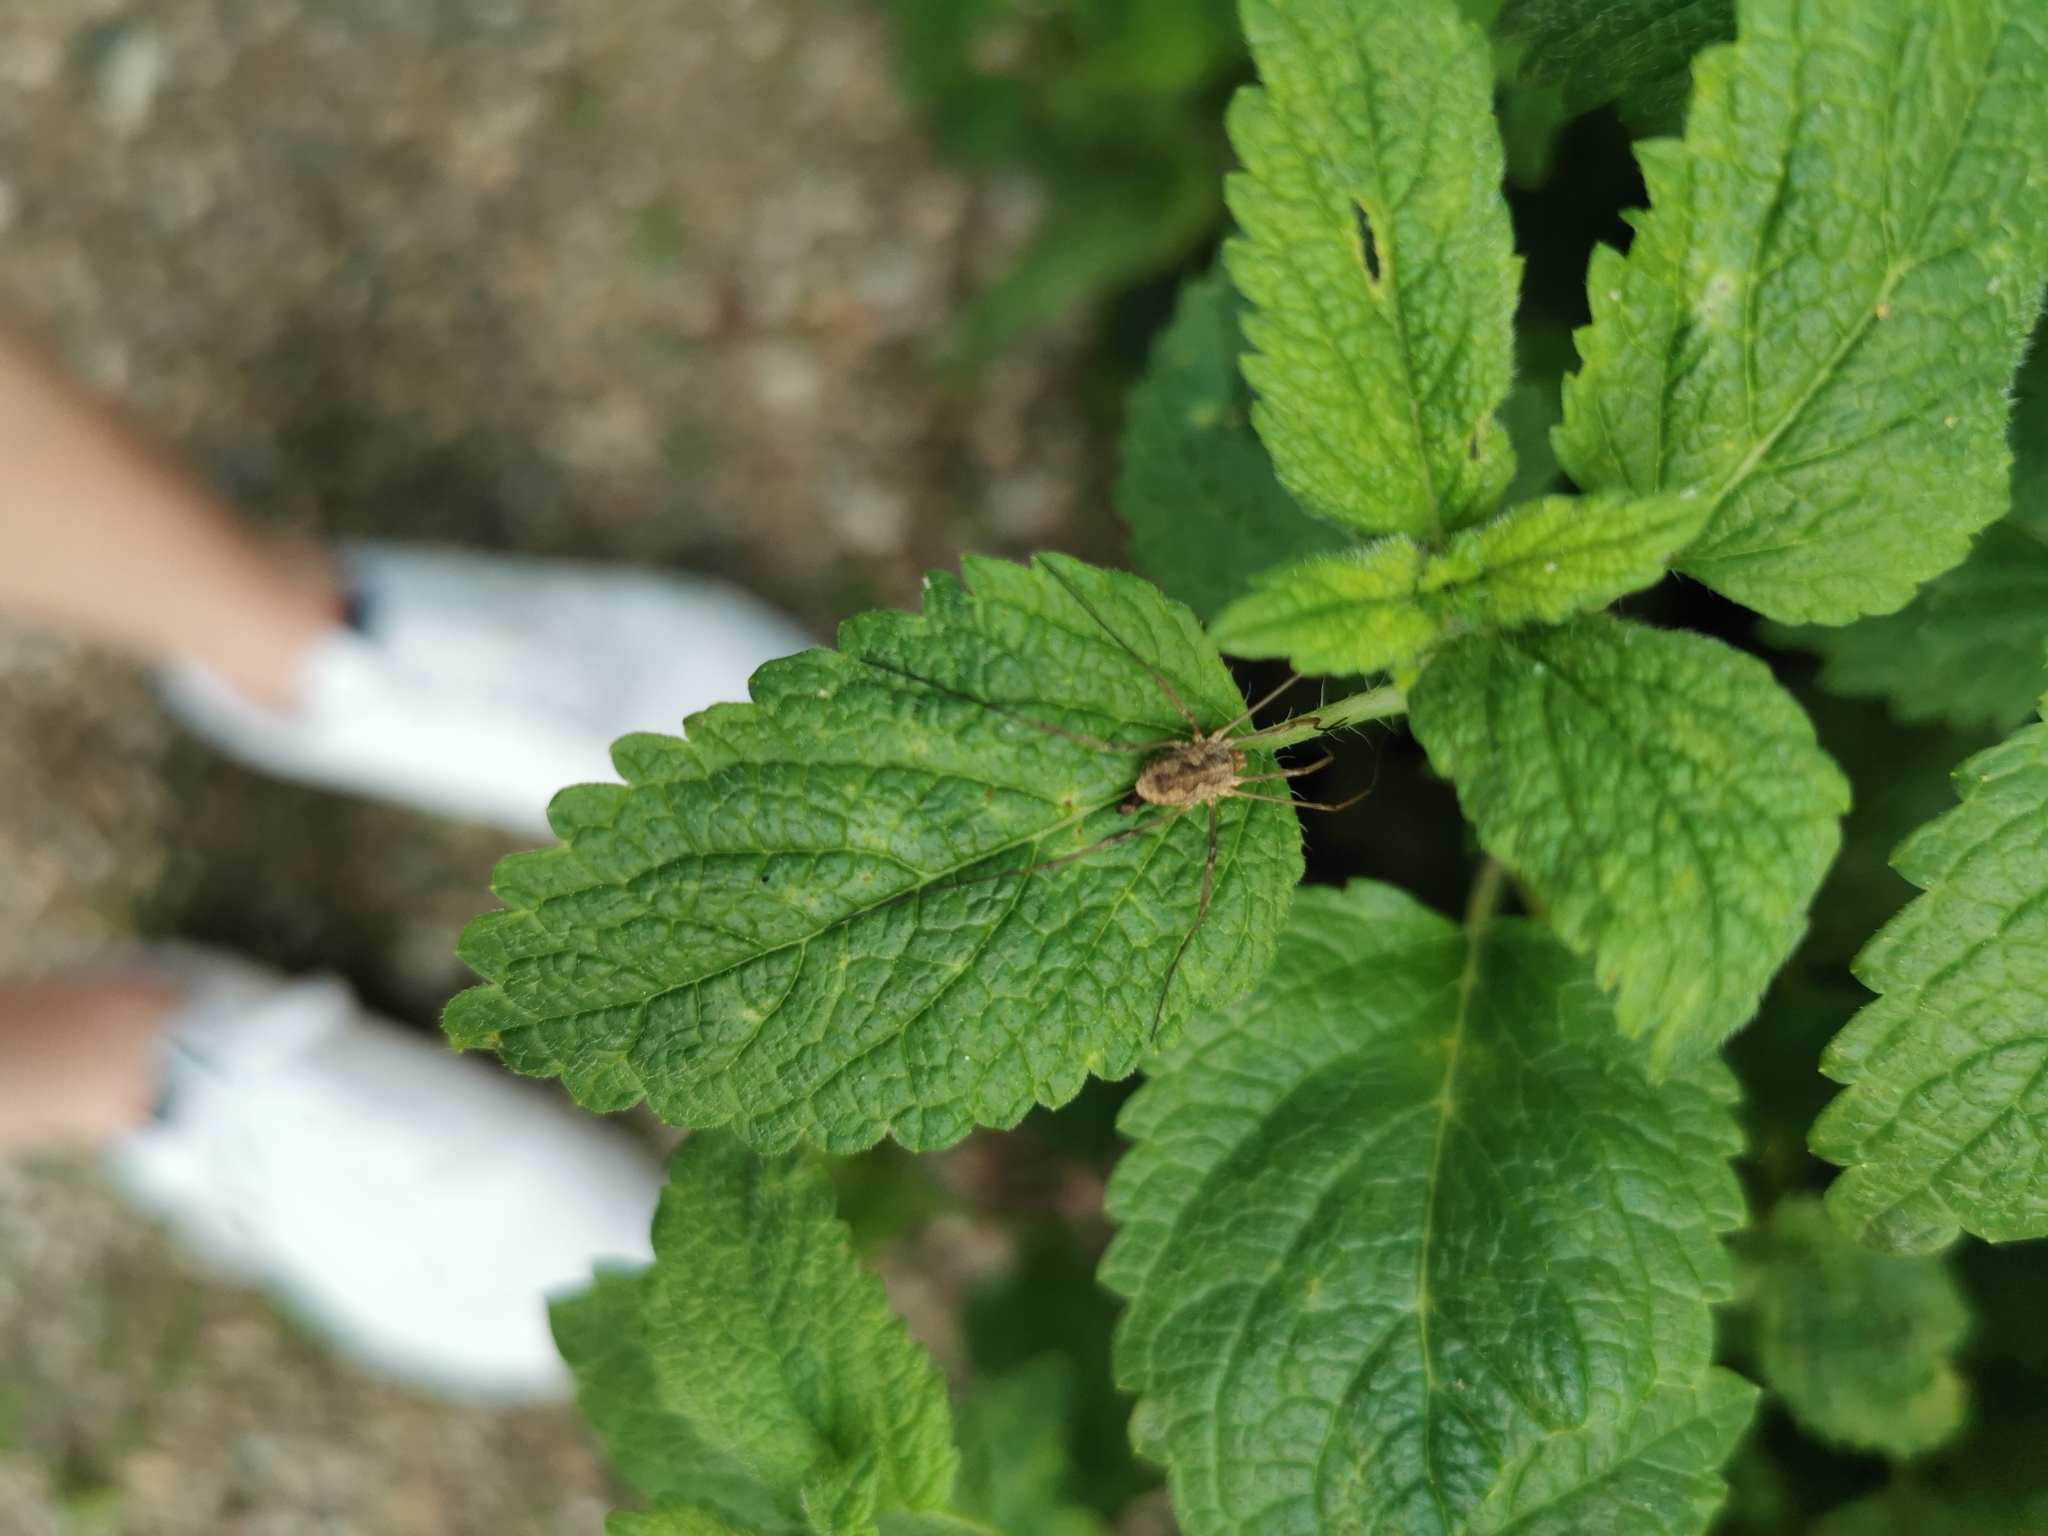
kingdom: Animalia
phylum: Arthropoda
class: Arachnida
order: Opiliones
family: Phalangiidae
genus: Phalangium
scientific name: Phalangium opilio
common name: Daddy longleg
